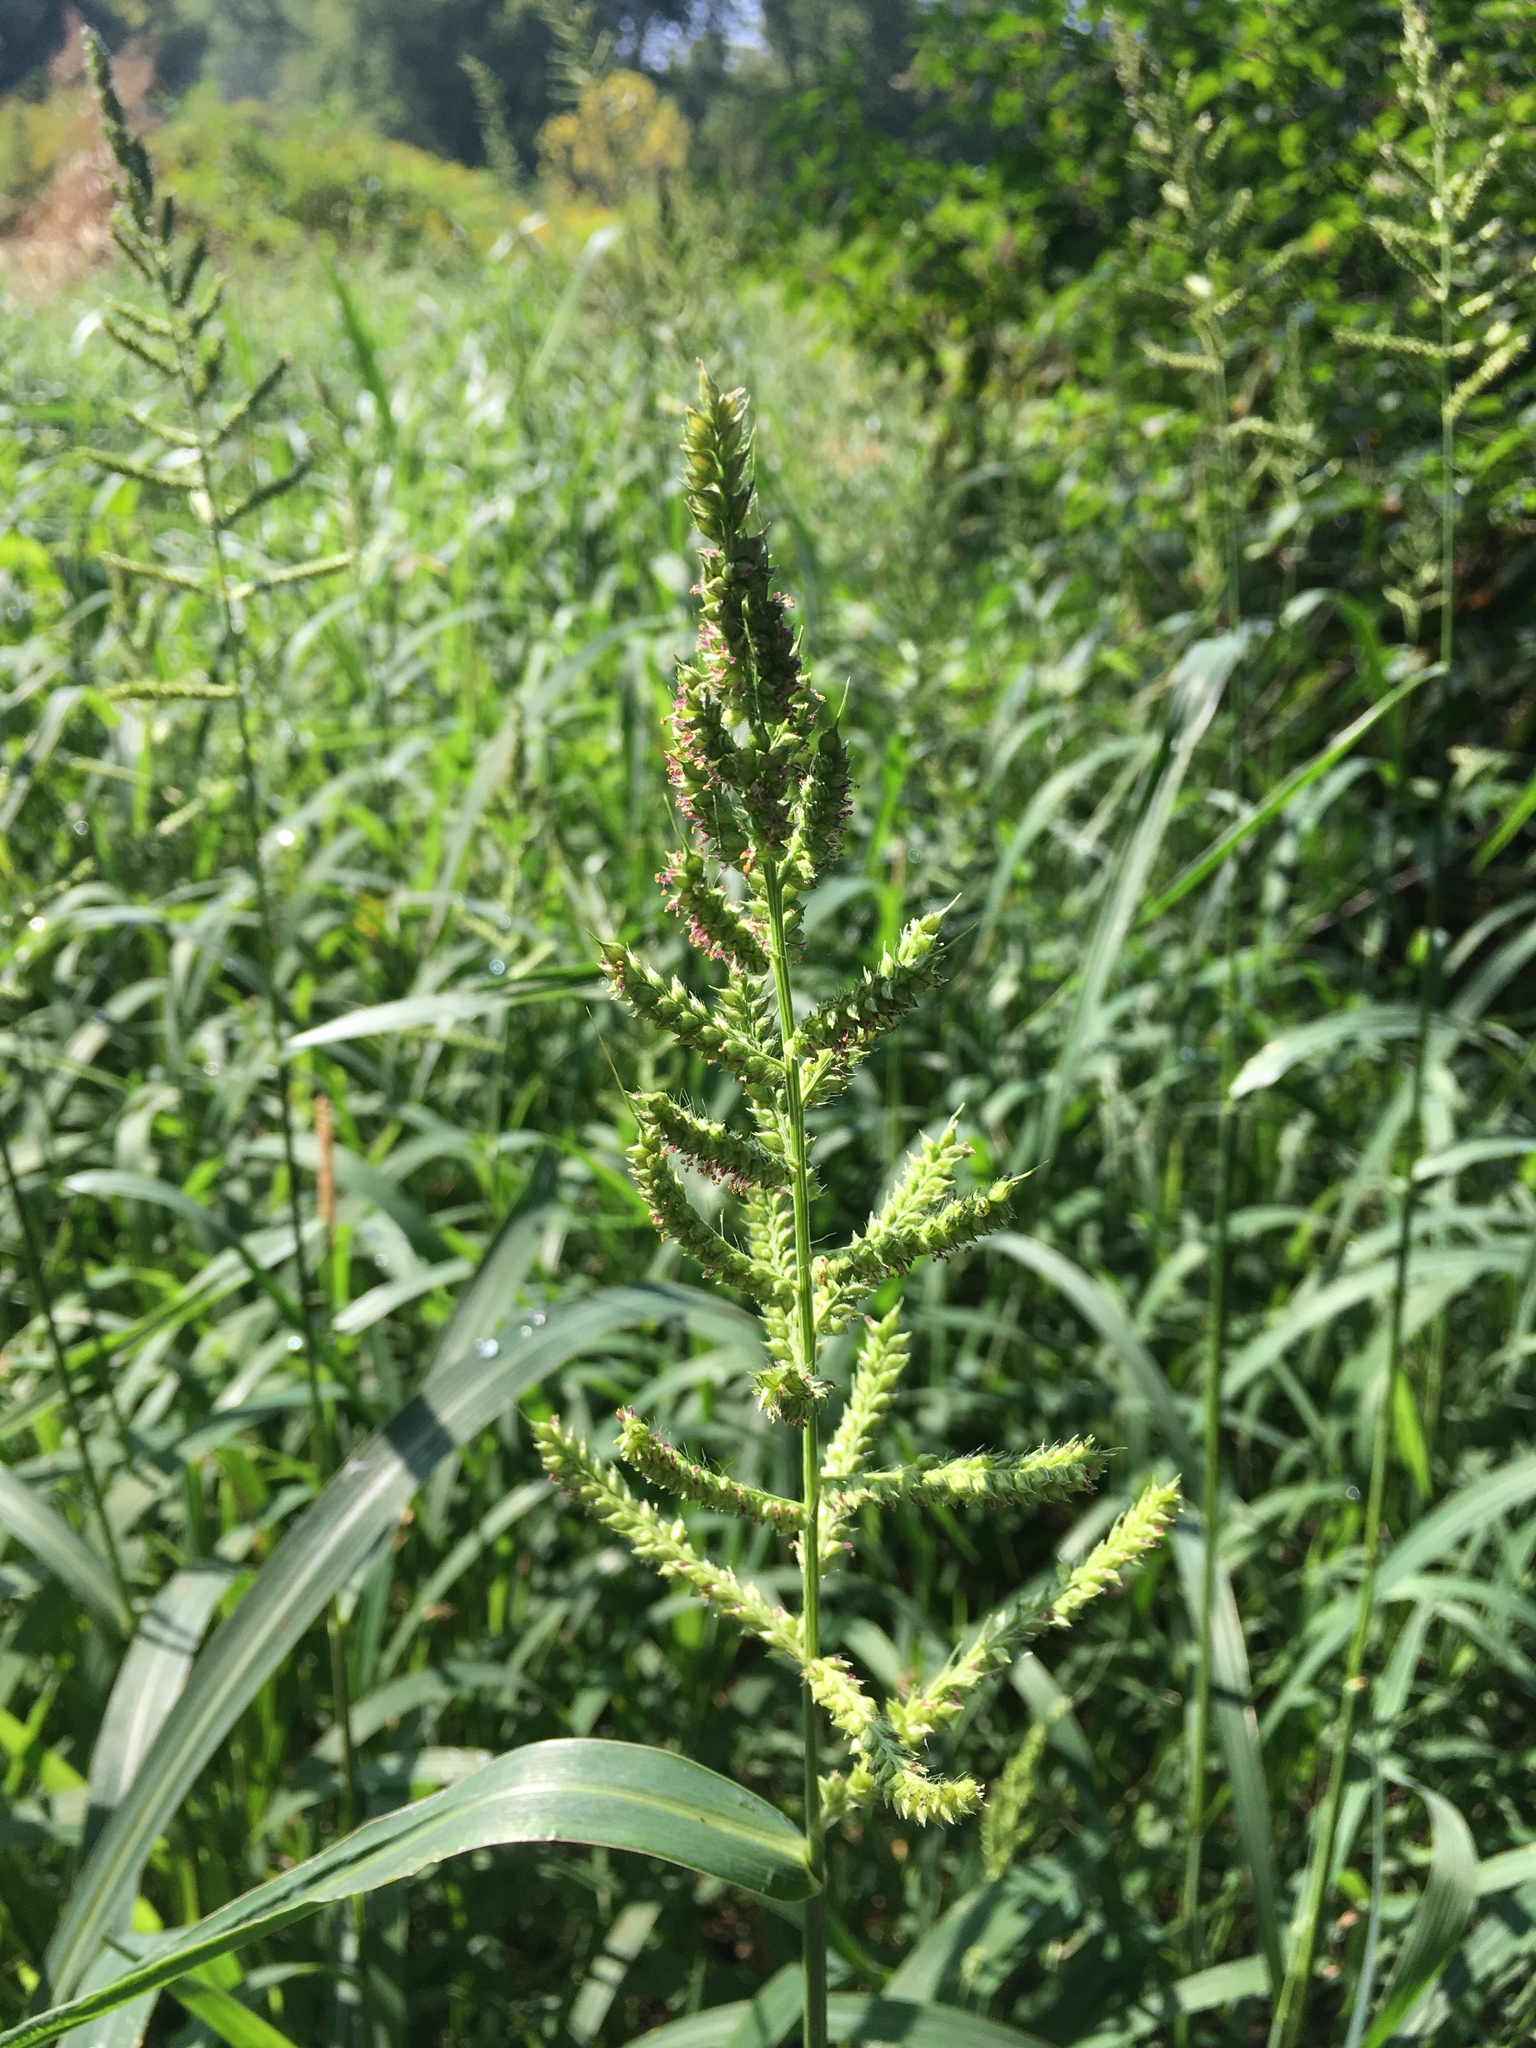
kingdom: Plantae
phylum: Tracheophyta
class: Liliopsida
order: Poales
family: Poaceae
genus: Echinochloa
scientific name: Echinochloa crus-galli
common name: Cockspur
